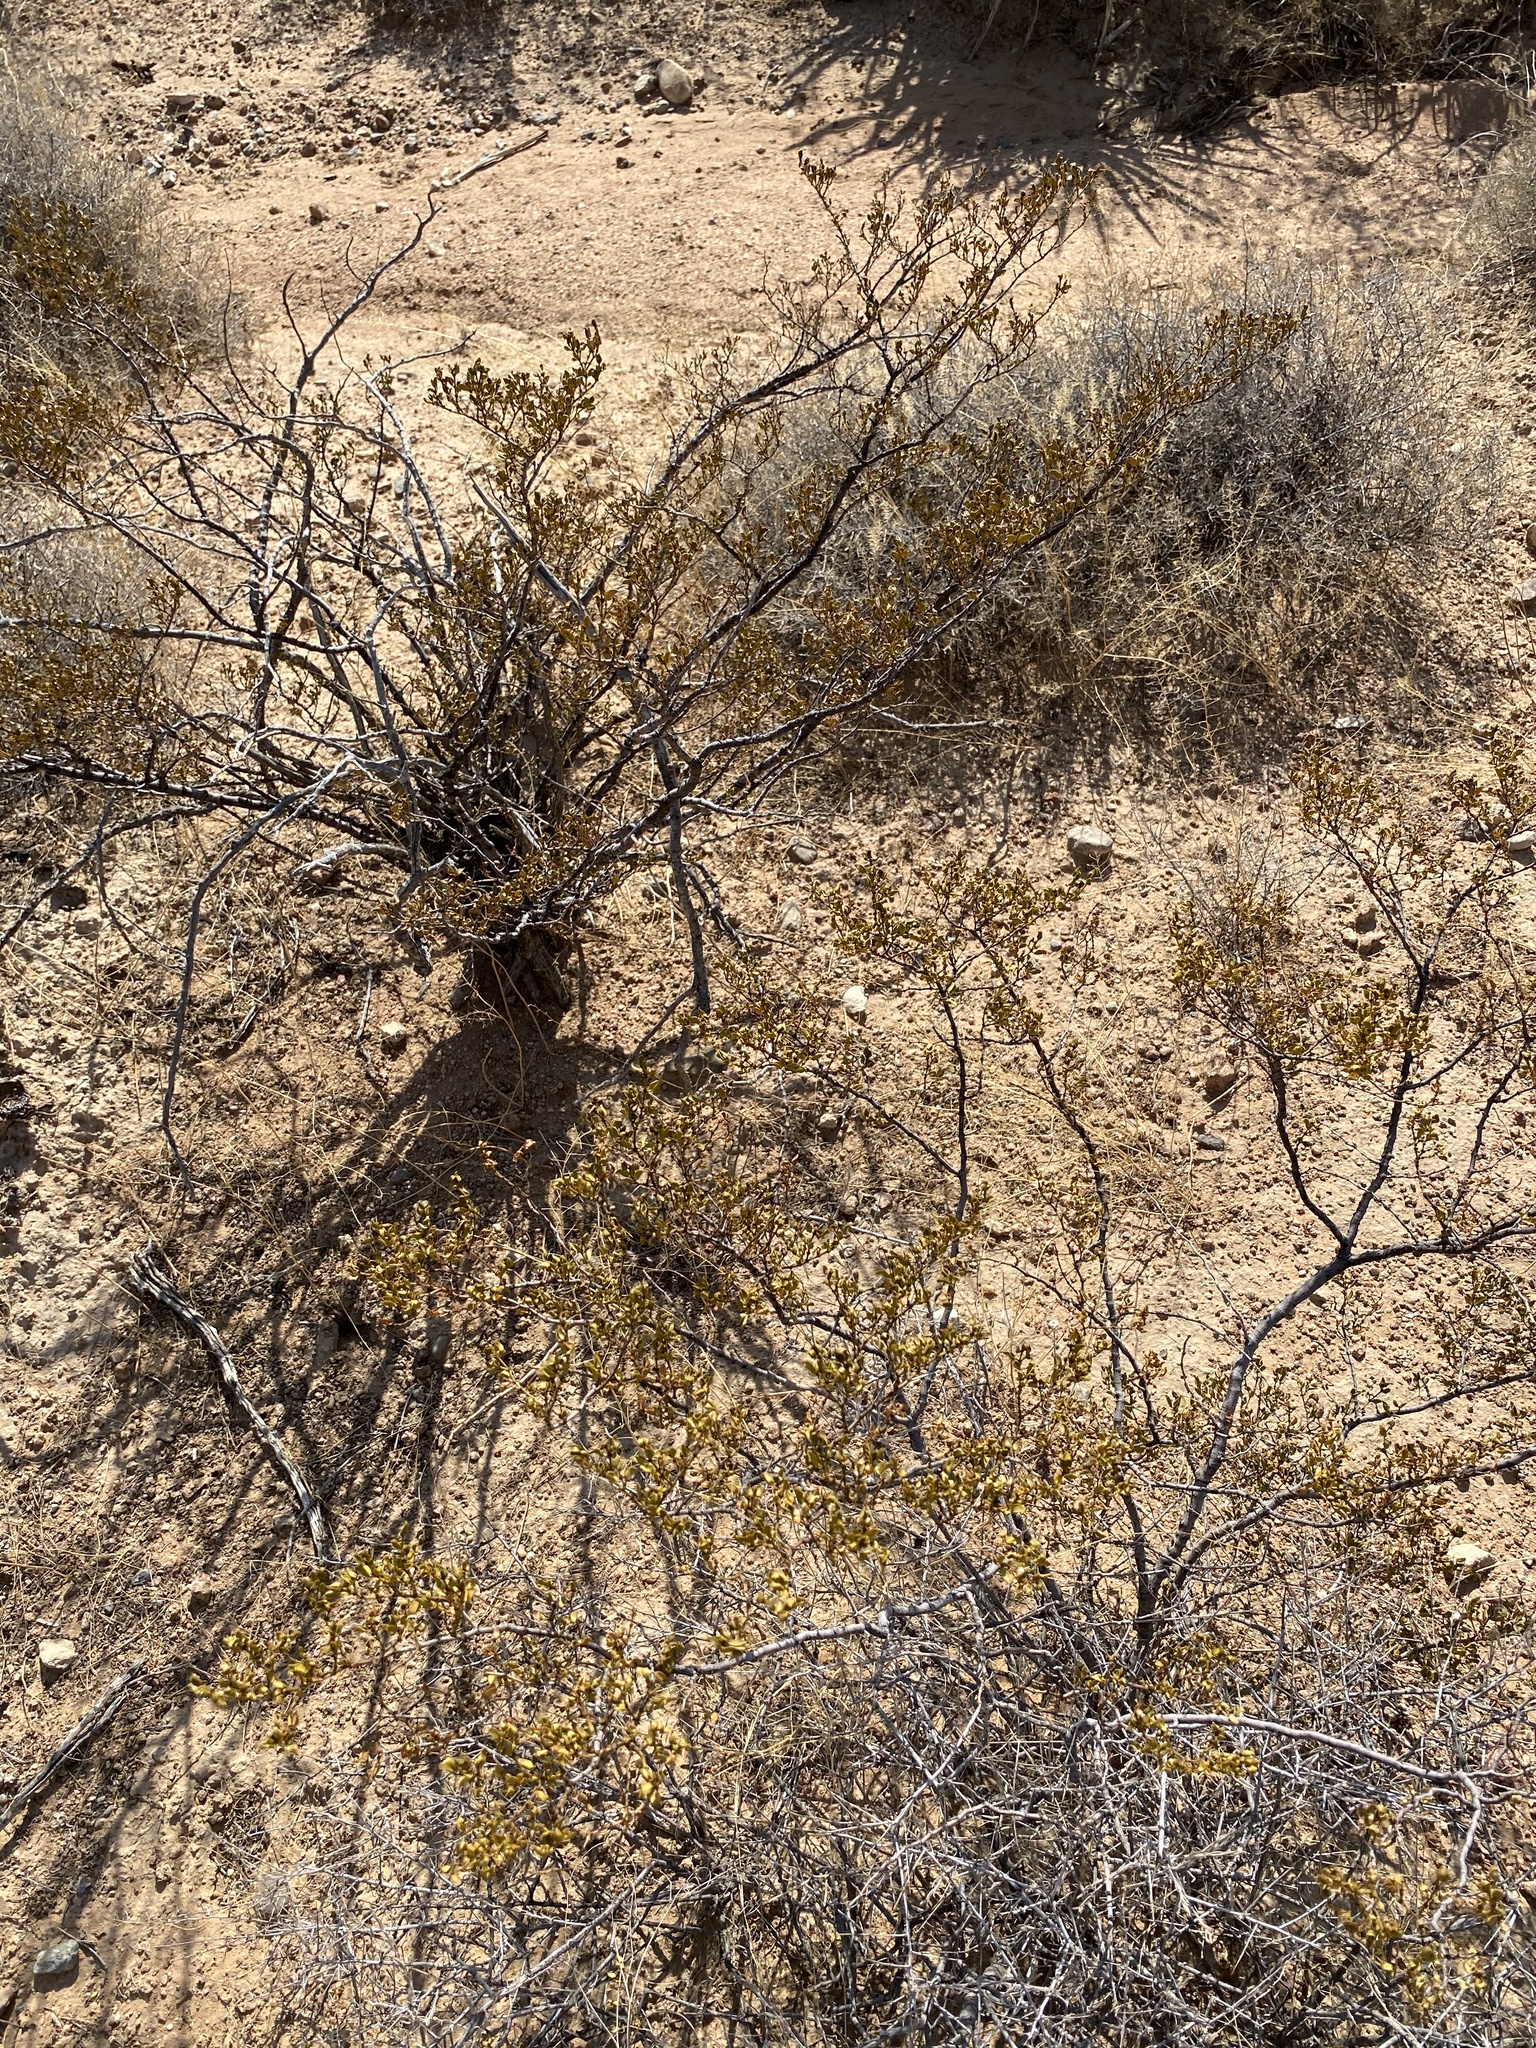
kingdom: Plantae
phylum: Tracheophyta
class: Magnoliopsida
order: Zygophyllales
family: Zygophyllaceae
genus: Larrea
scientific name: Larrea tridentata
